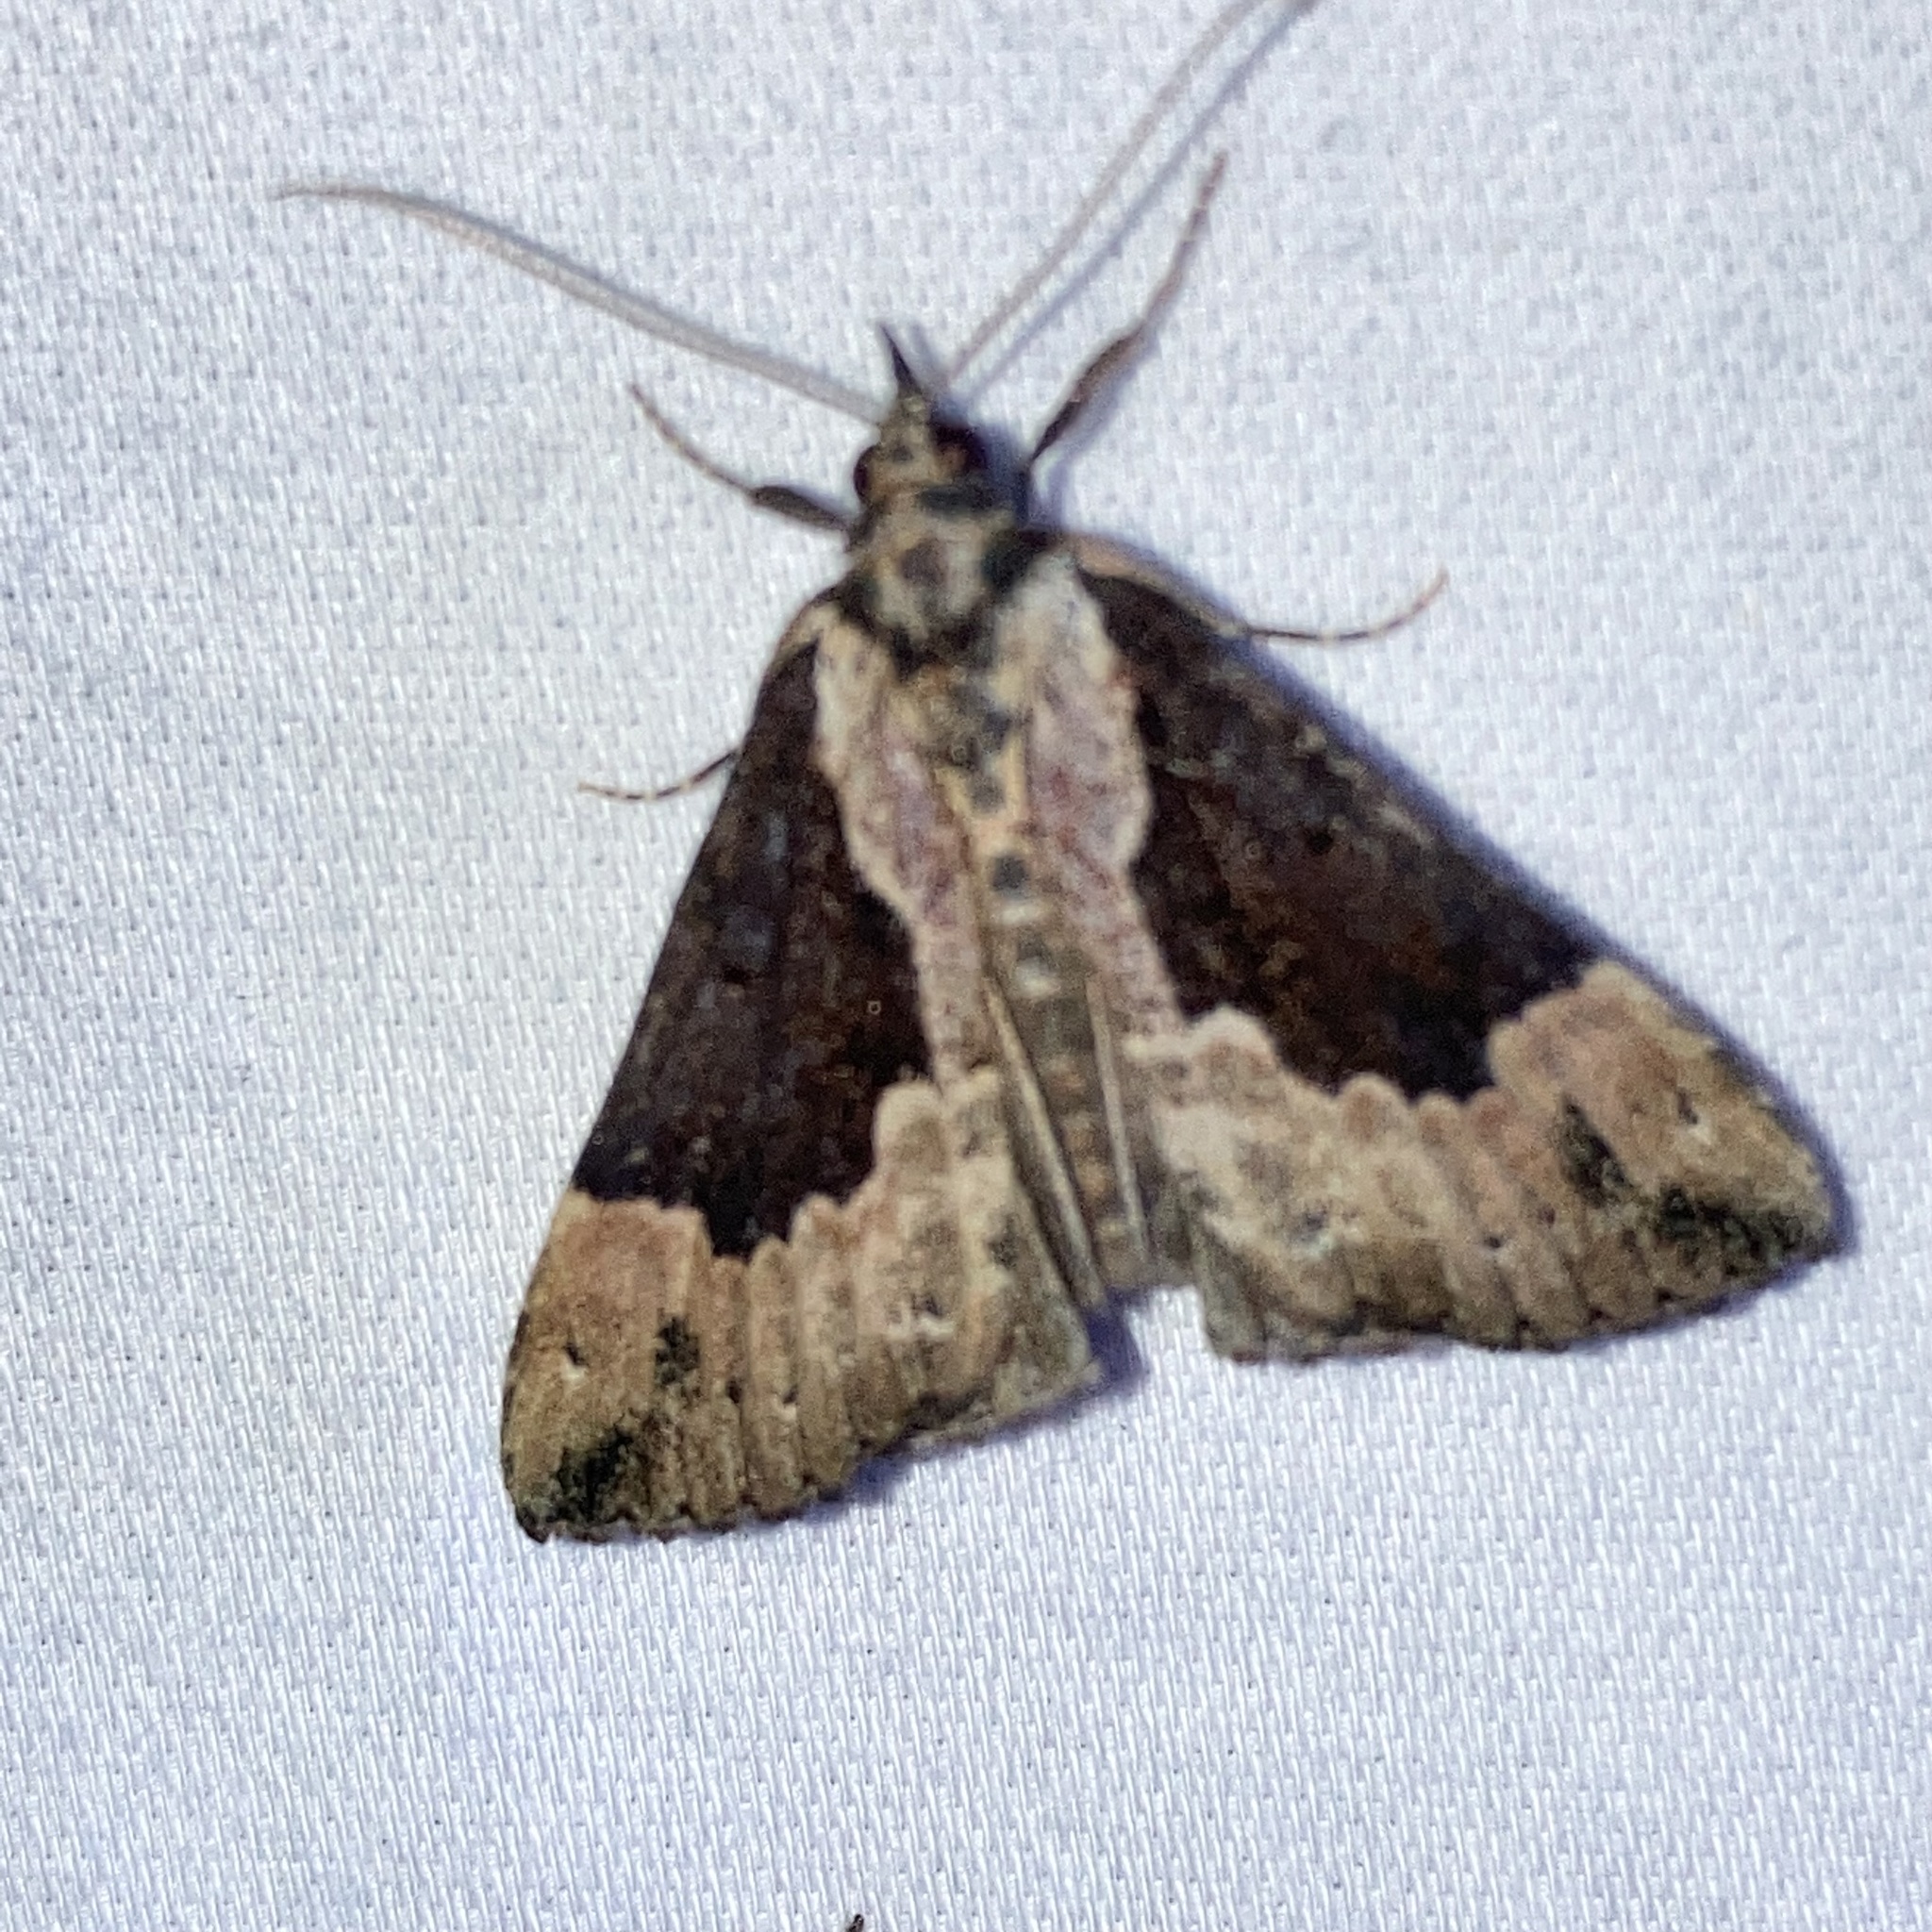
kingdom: Animalia
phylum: Arthropoda
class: Insecta
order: Lepidoptera
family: Erebidae
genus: Hypena
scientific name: Hypena baltimoralis
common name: Baltimore snout
